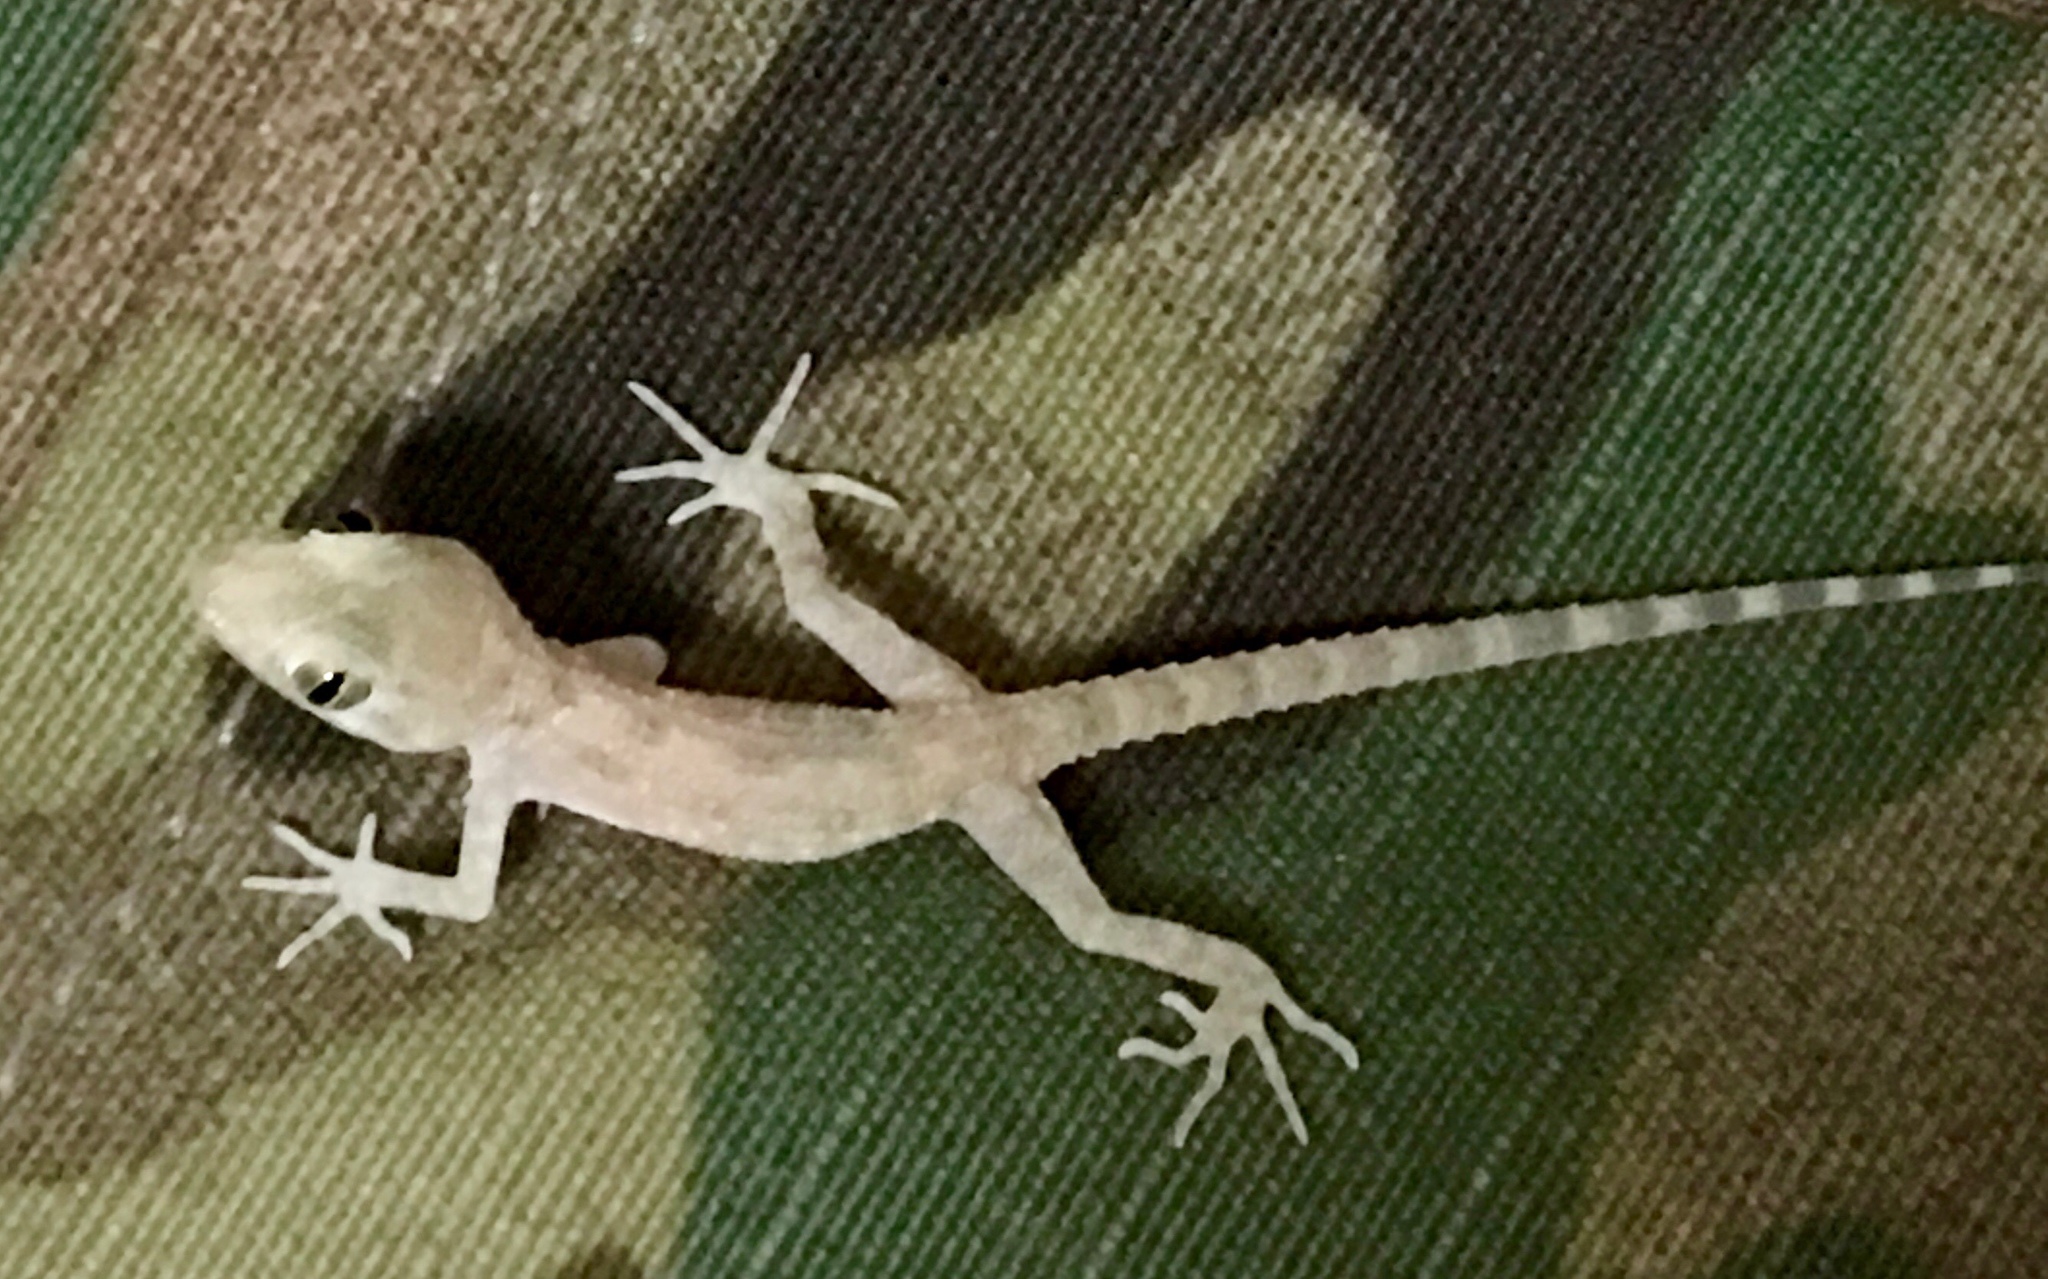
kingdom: Animalia
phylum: Chordata
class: Squamata
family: Gekkonidae
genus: Cyrtopodion
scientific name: Cyrtopodion scabrum
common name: Rough-tailed gecko
